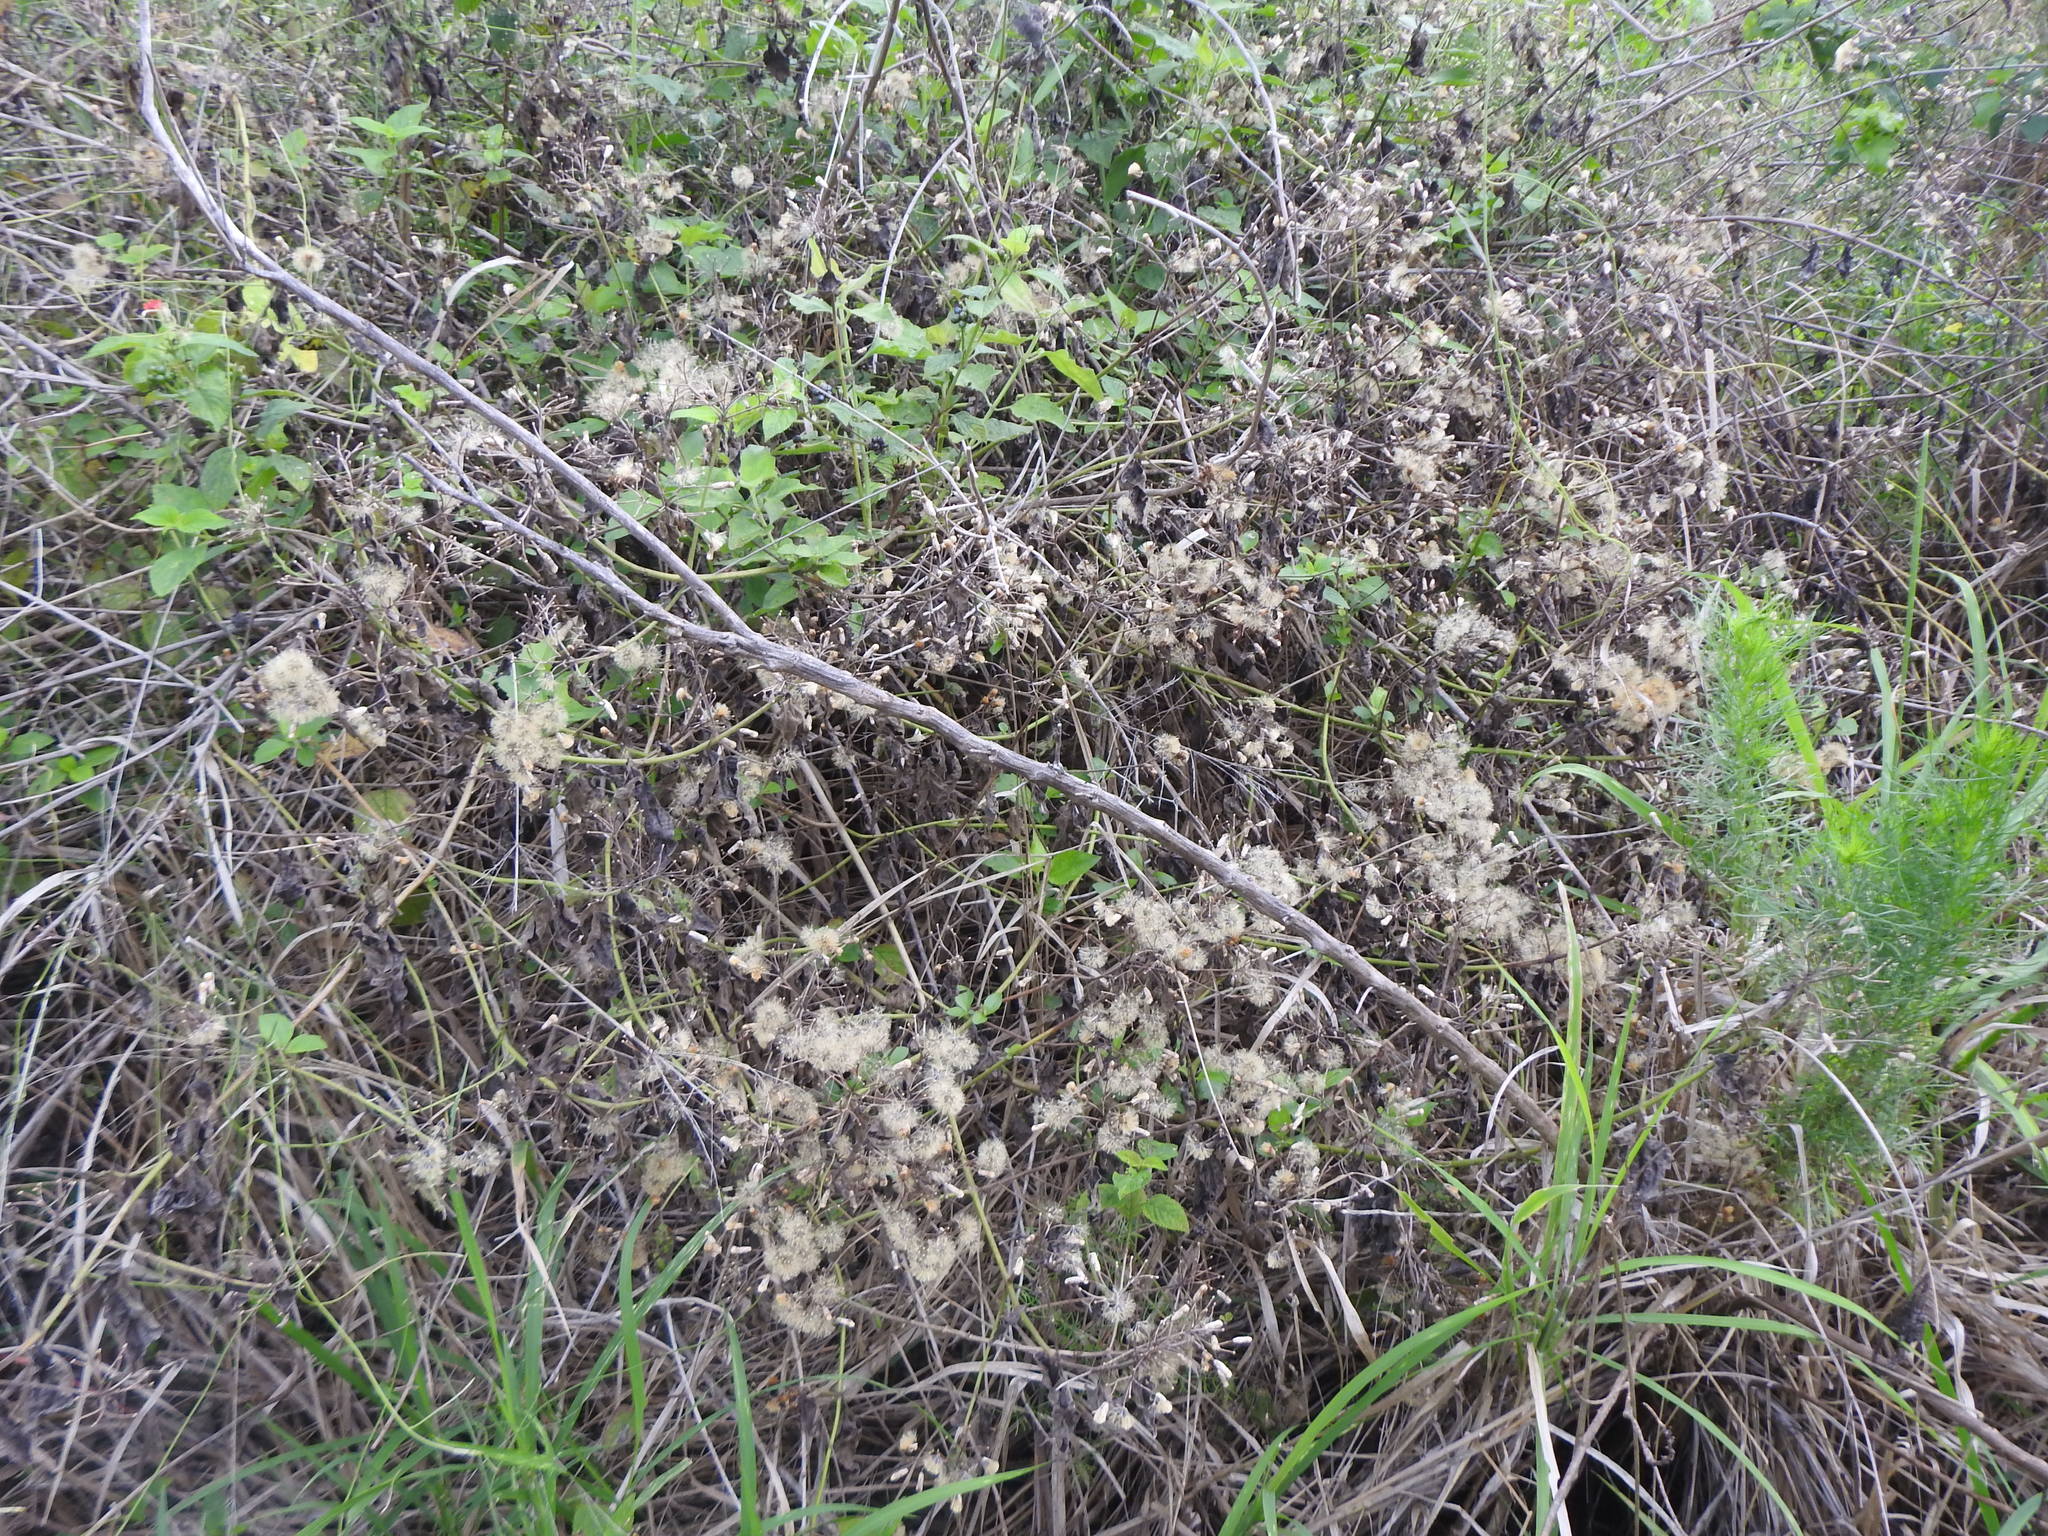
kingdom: Plantae
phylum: Tracheophyta
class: Magnoliopsida
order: Asterales
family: Asteraceae
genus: Chromolaena
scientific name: Chromolaena odorata
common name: Siamweed
